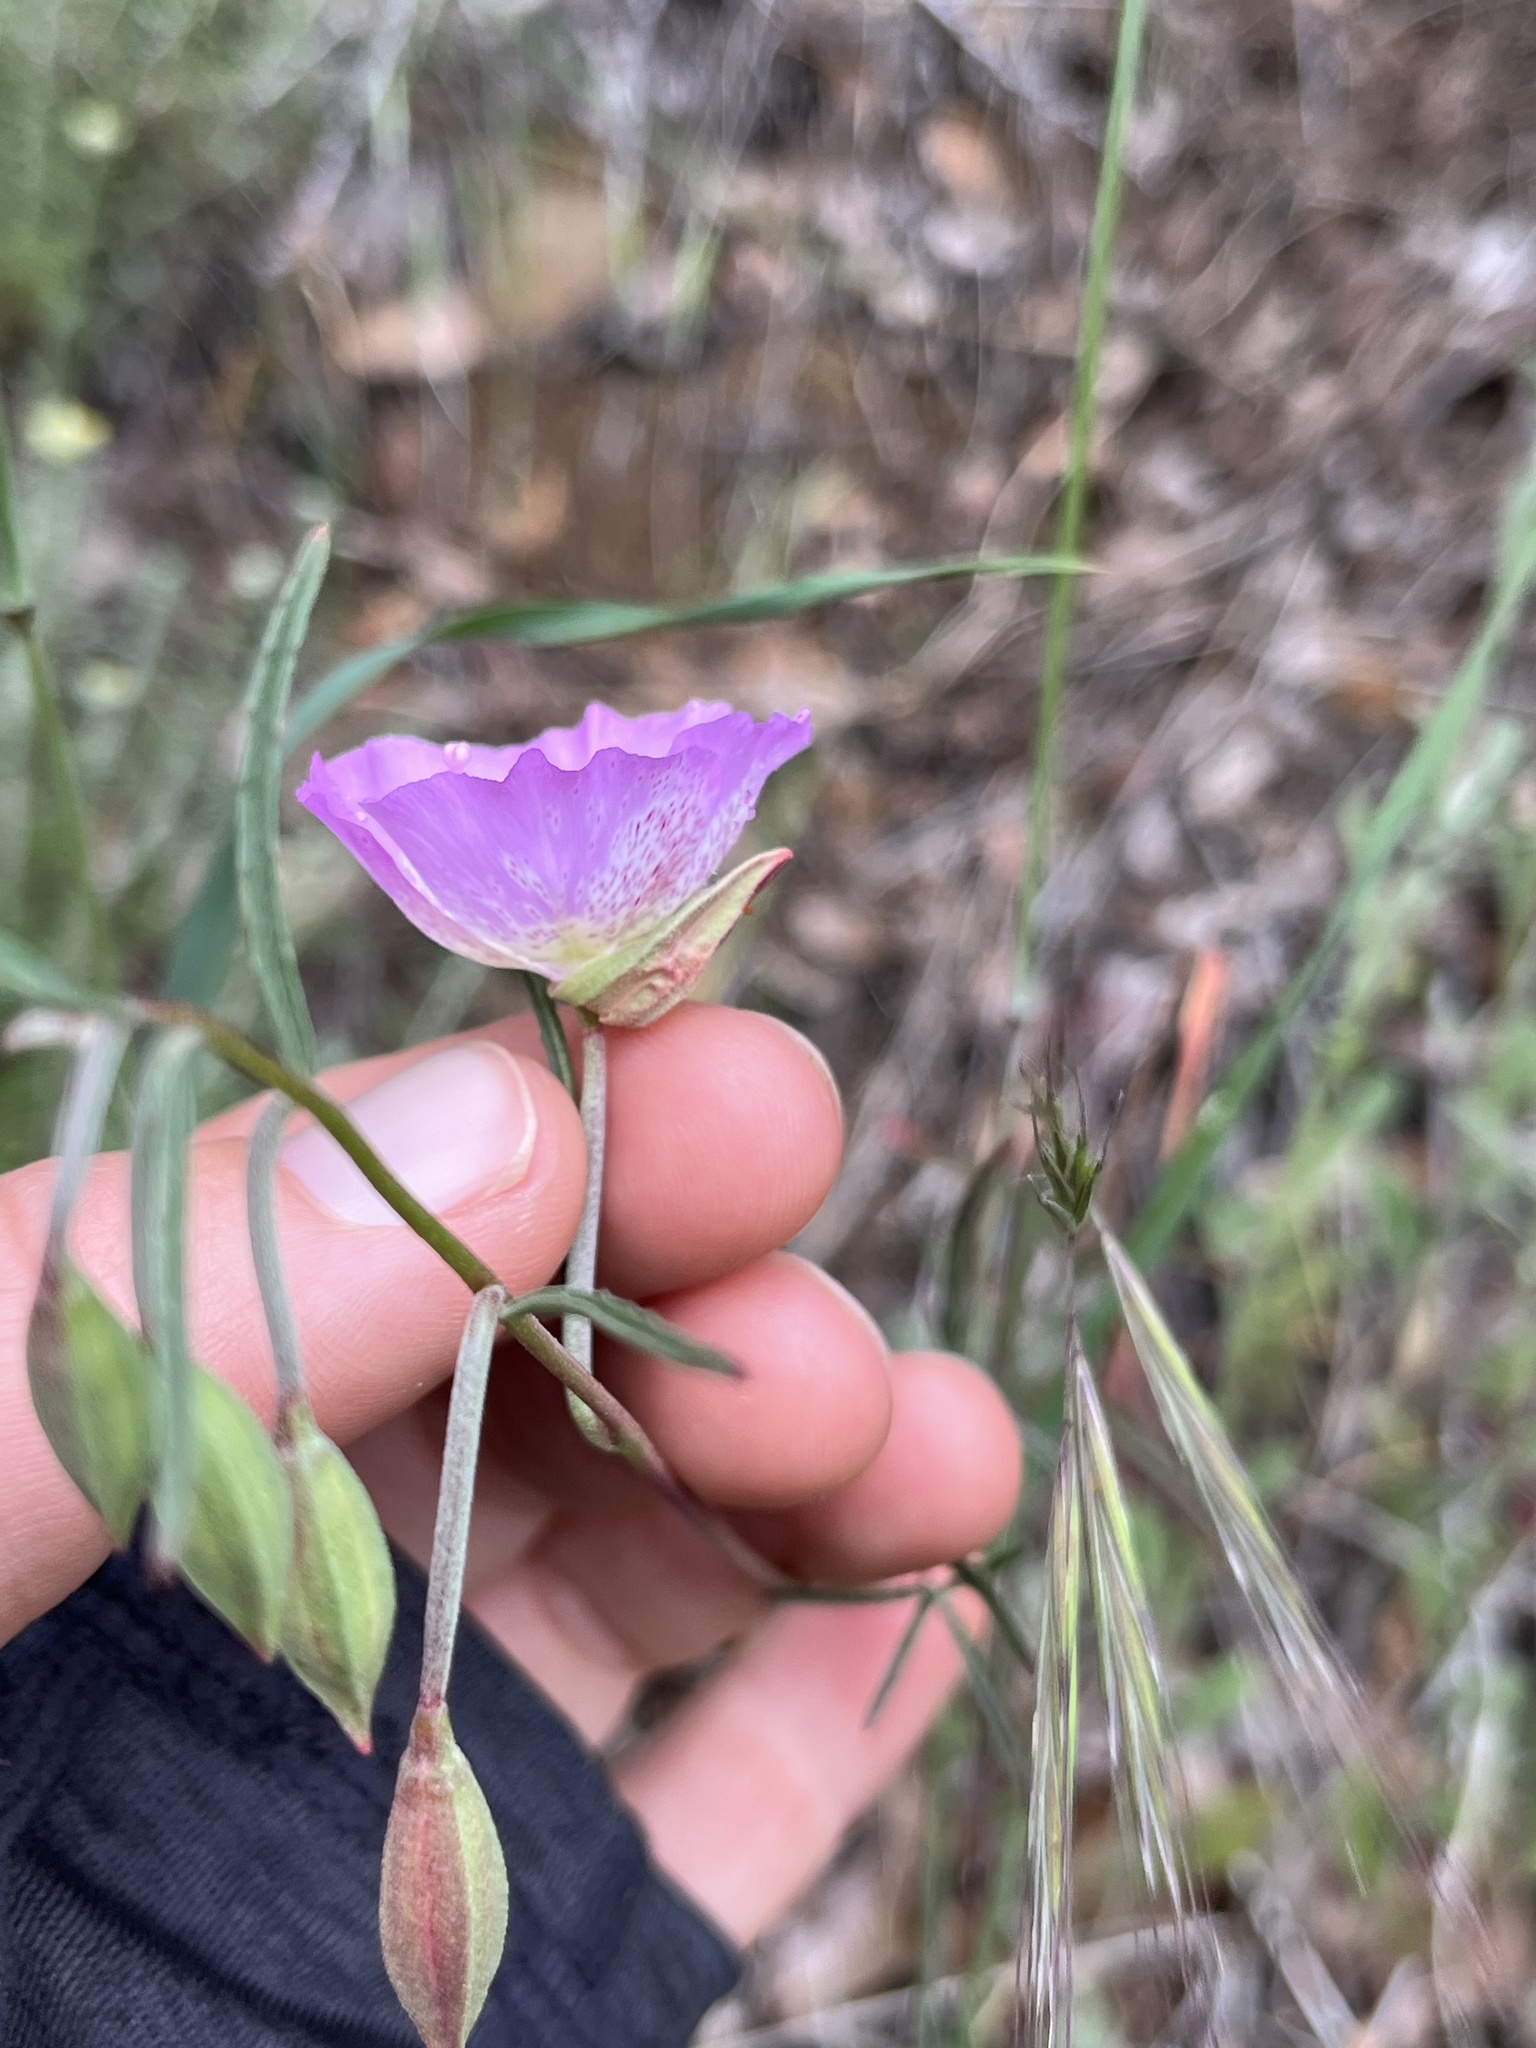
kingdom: Plantae
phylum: Tracheophyta
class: Magnoliopsida
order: Myrtales
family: Onagraceae
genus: Clarkia
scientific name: Clarkia bottae
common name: Punch-bowl godetia
